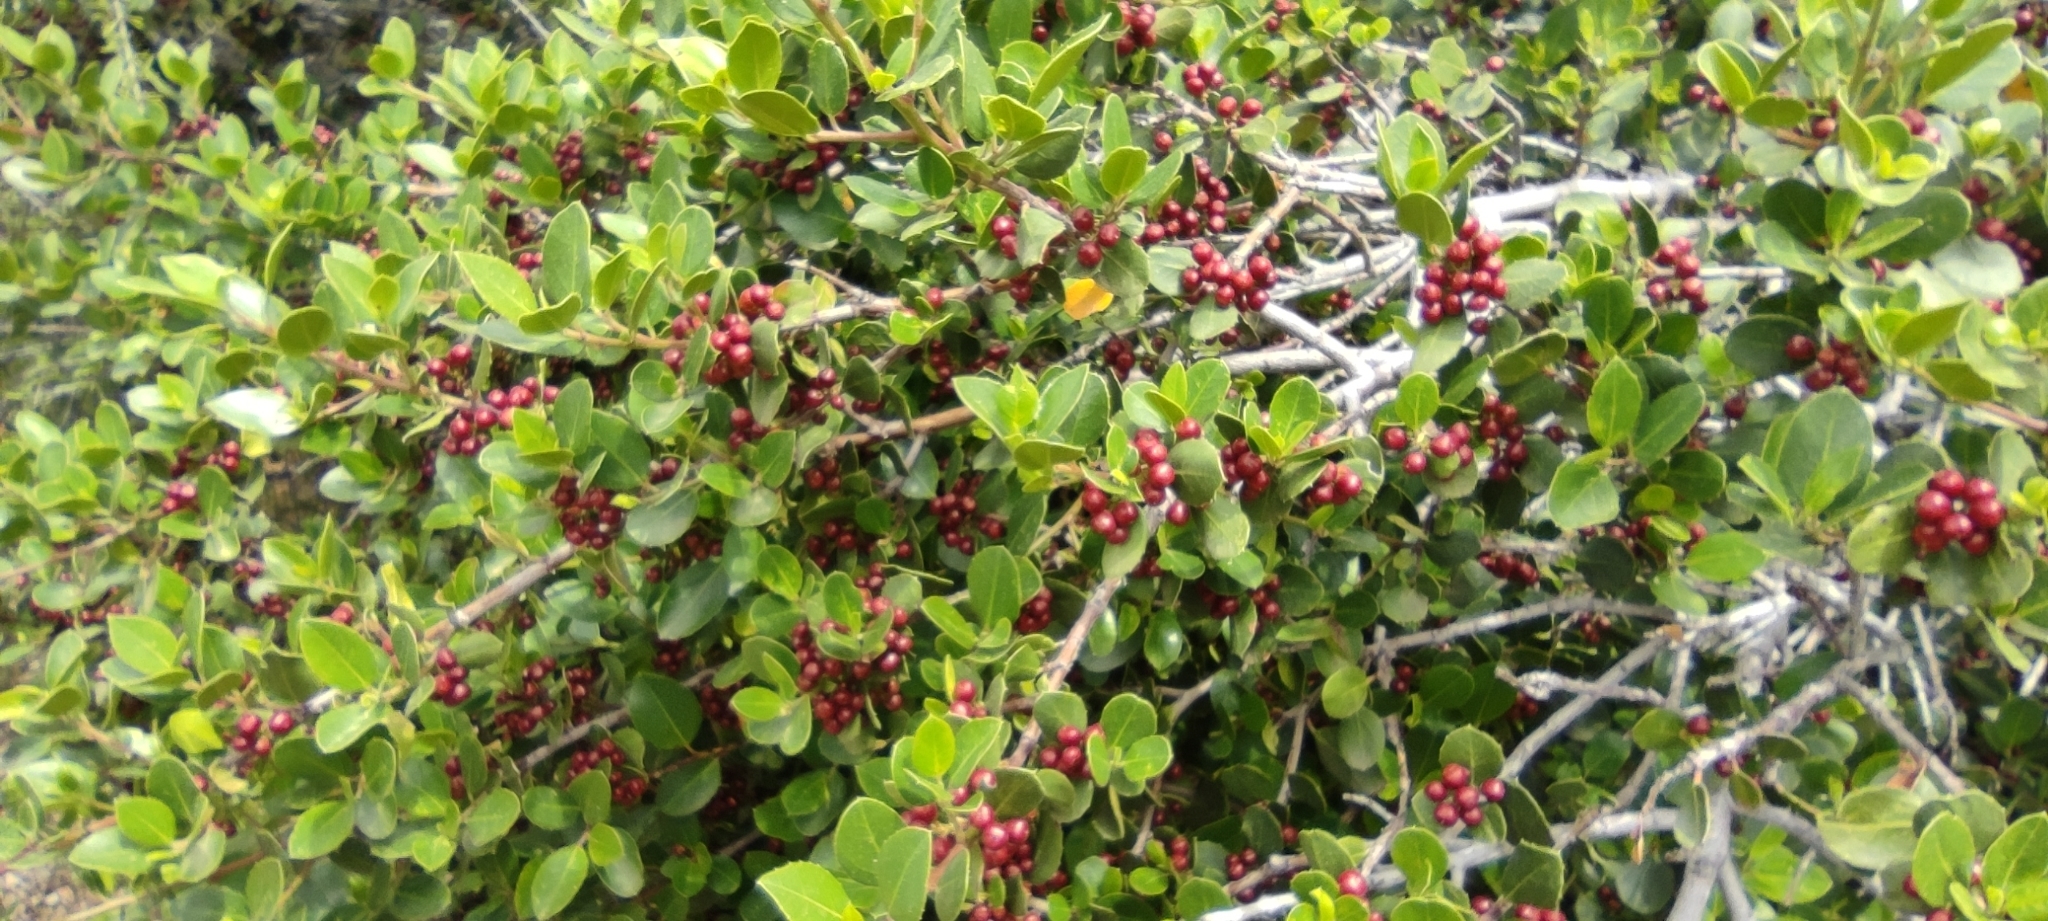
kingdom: Plantae
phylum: Tracheophyta
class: Magnoliopsida
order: Rosales
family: Rhamnaceae
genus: Rhamnus
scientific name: Rhamnus alaternus
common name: Mediterranean buckthorn
